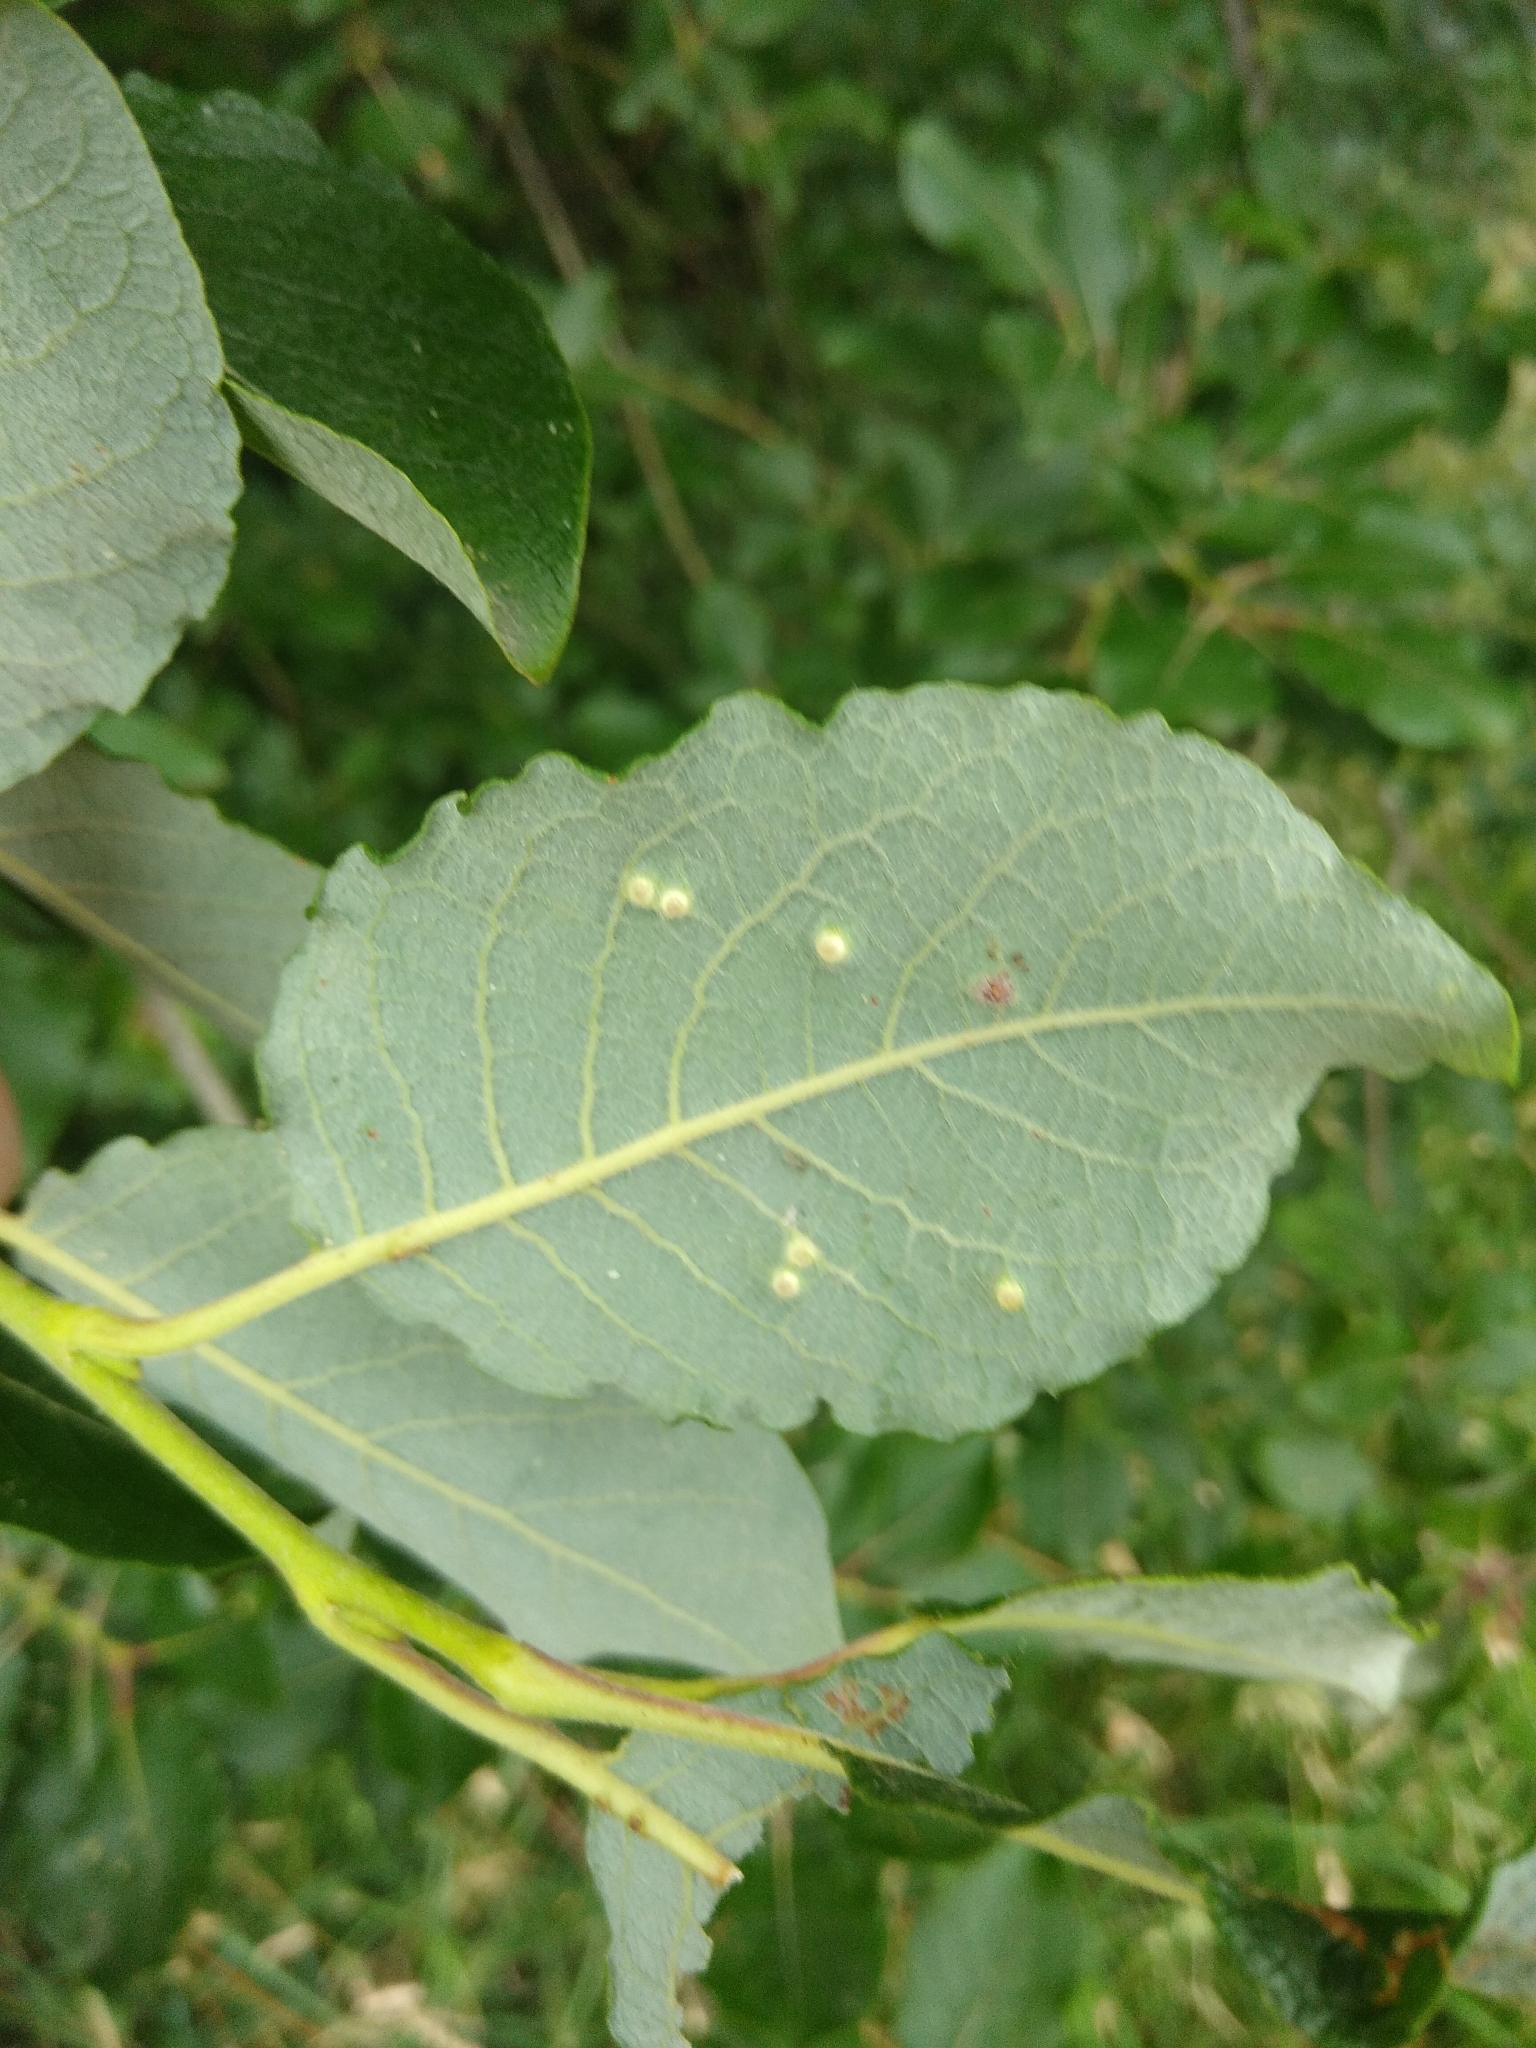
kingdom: Animalia
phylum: Arthropoda
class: Insecta
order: Diptera
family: Cecidomyiidae
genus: Iteomyia
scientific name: Iteomyia capreae
